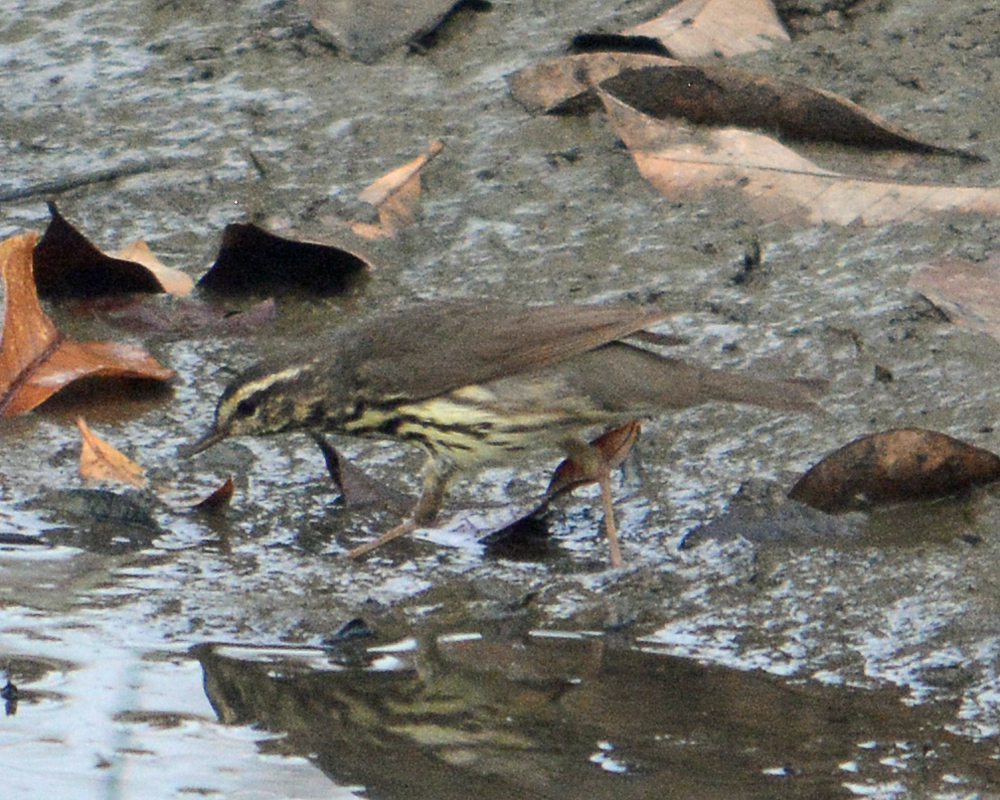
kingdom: Animalia
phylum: Chordata
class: Aves
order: Passeriformes
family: Parulidae
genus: Parkesia
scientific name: Parkesia noveboracensis
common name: Northern waterthrush
